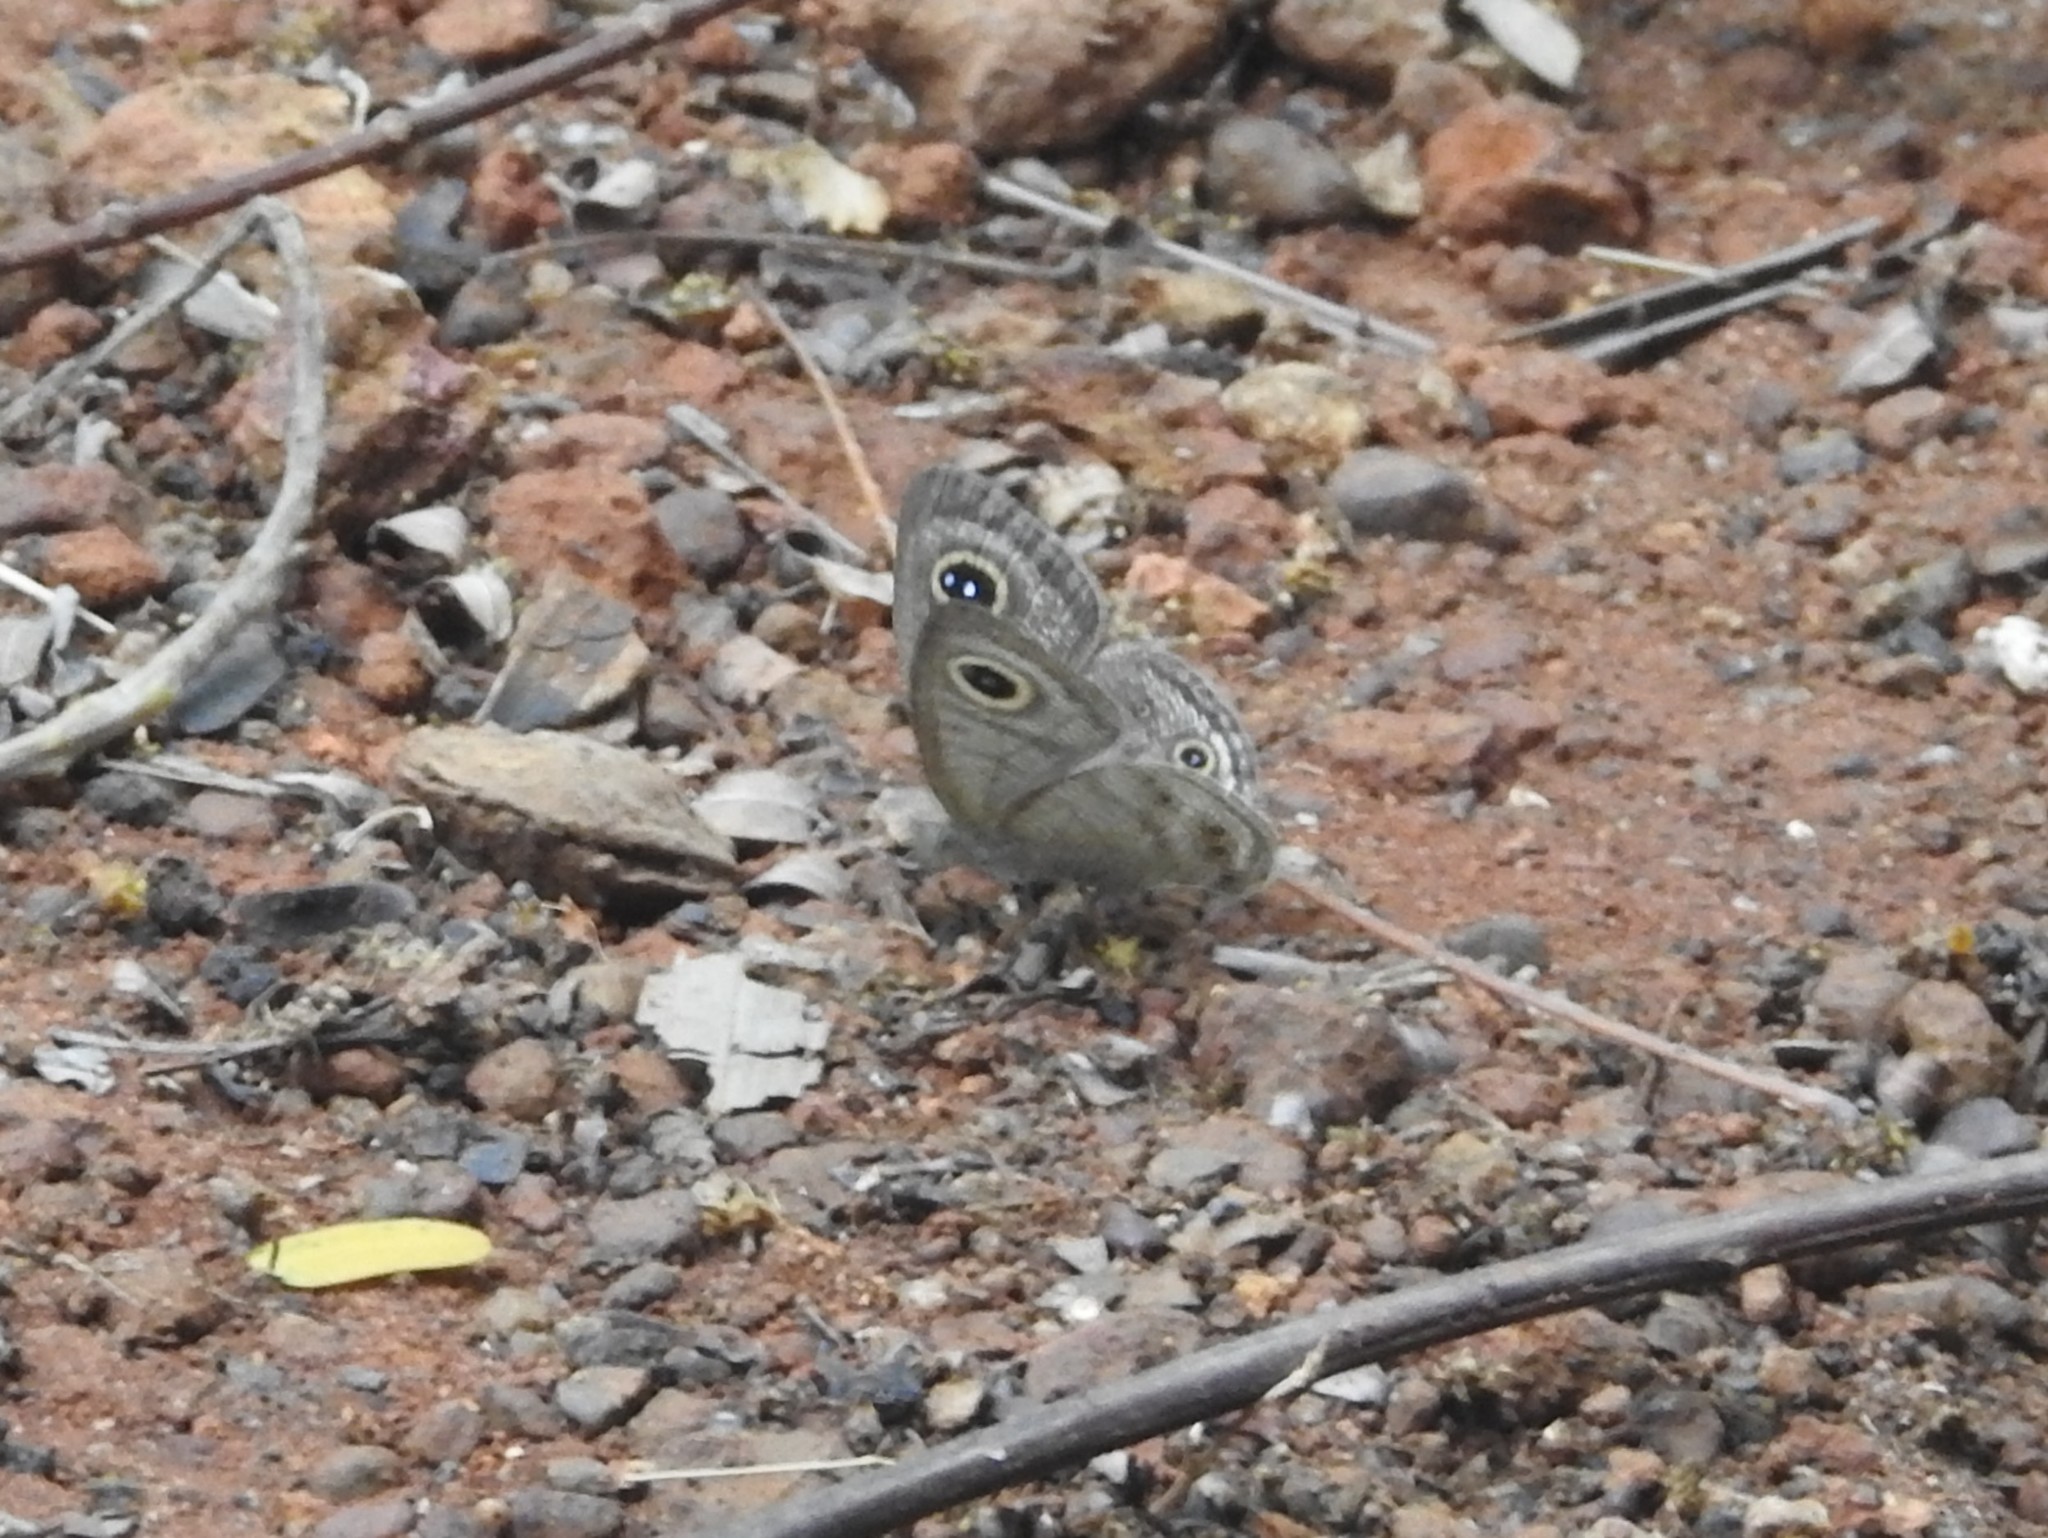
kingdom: Animalia
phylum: Arthropoda
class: Insecta
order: Lepidoptera
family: Nymphalidae
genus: Ypthima
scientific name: Ypthima baldus
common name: Common five-ring
